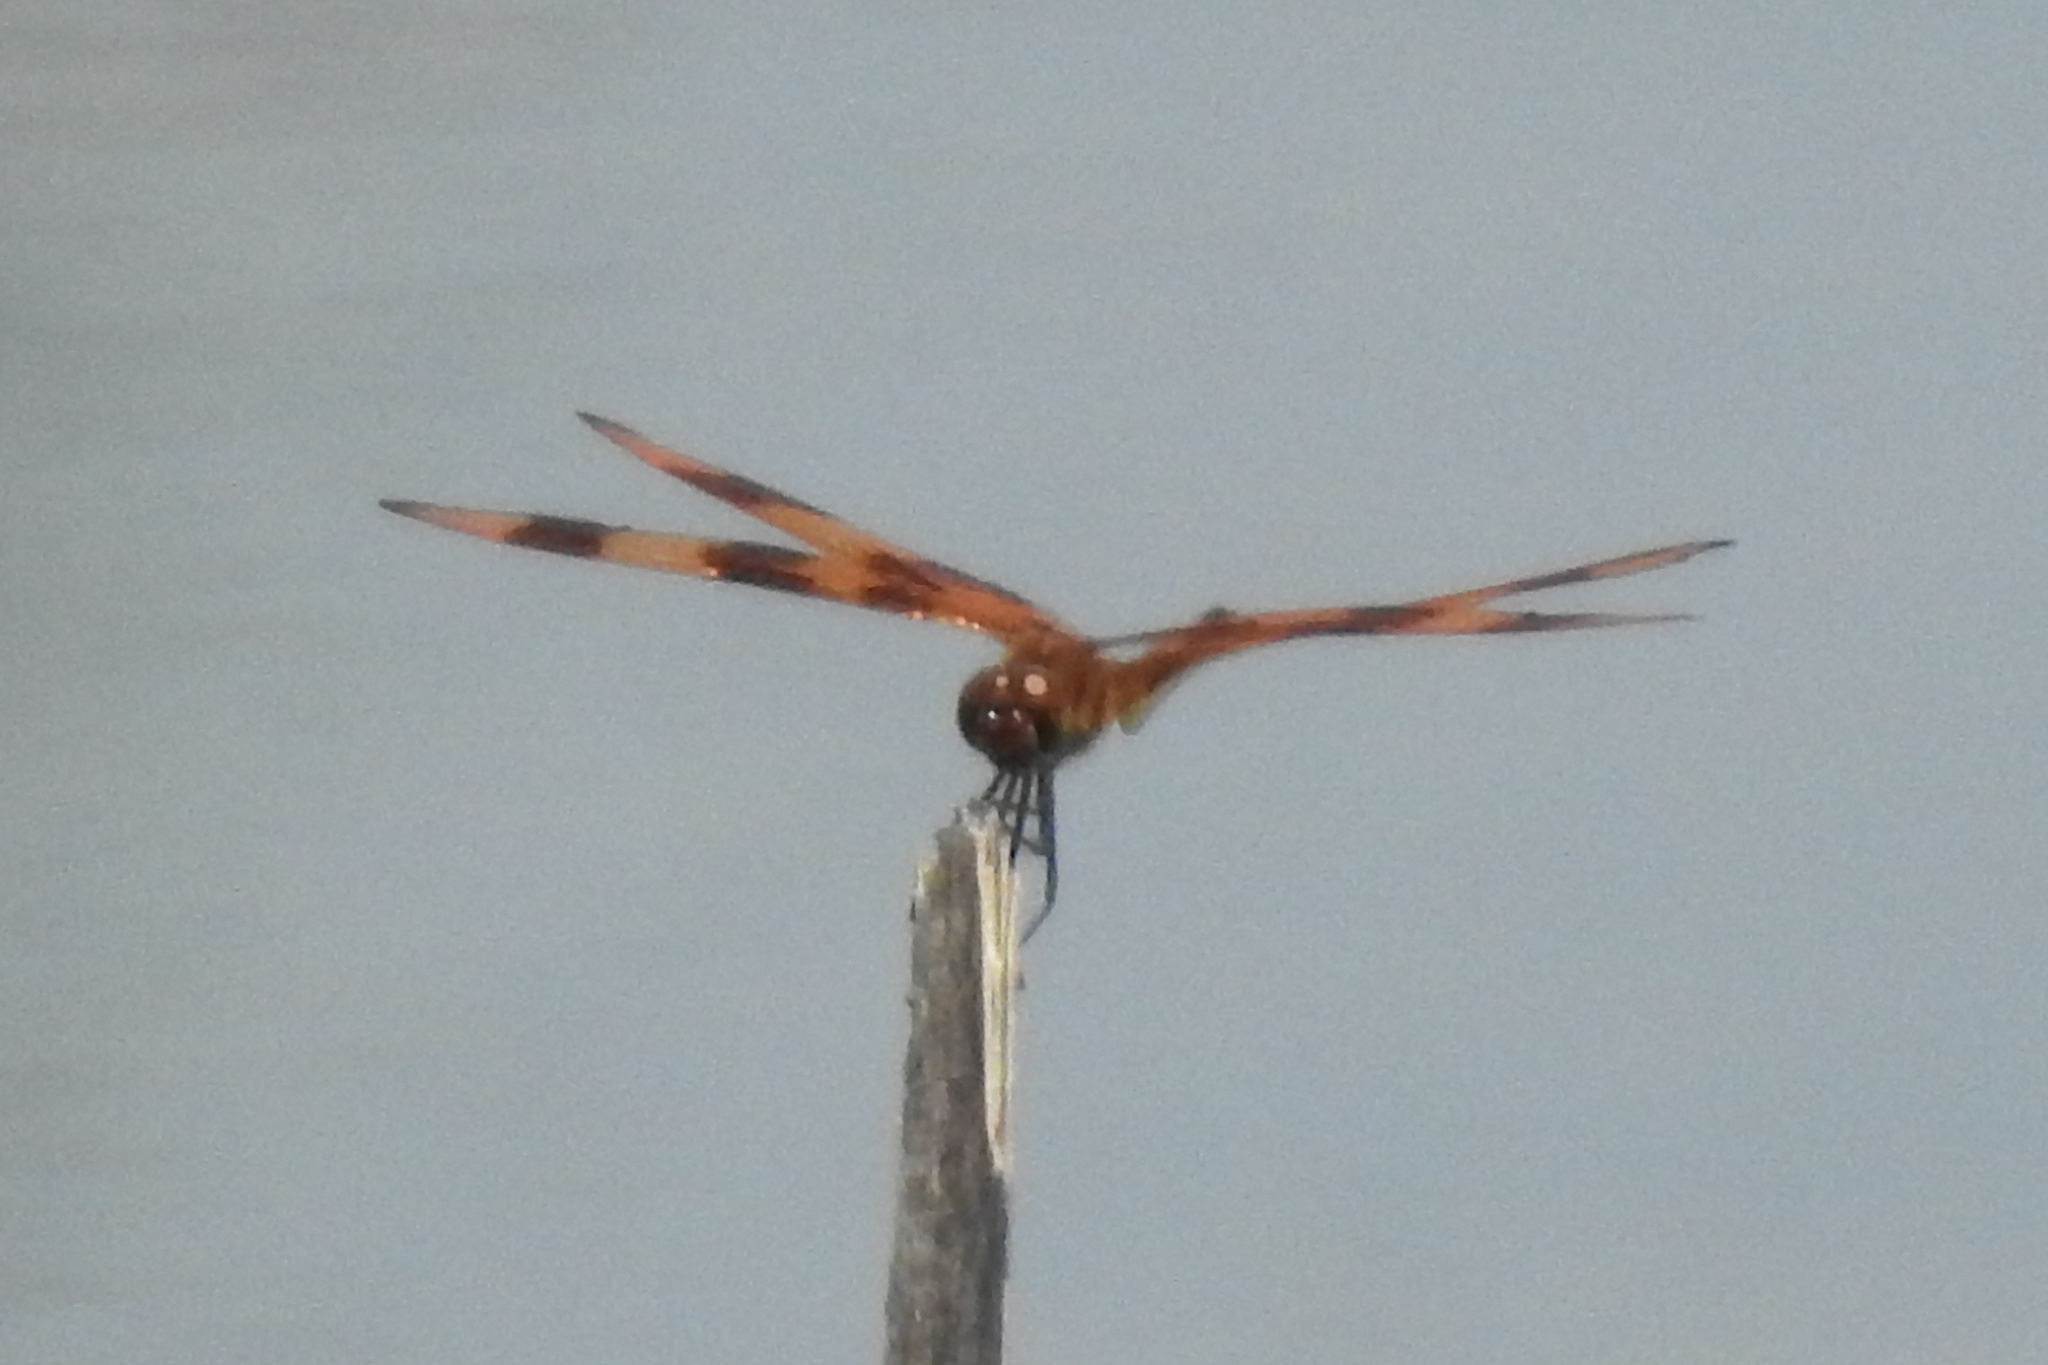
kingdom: Animalia
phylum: Arthropoda
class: Insecta
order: Odonata
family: Libellulidae
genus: Celithemis
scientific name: Celithemis eponina
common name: Halloween pennant
